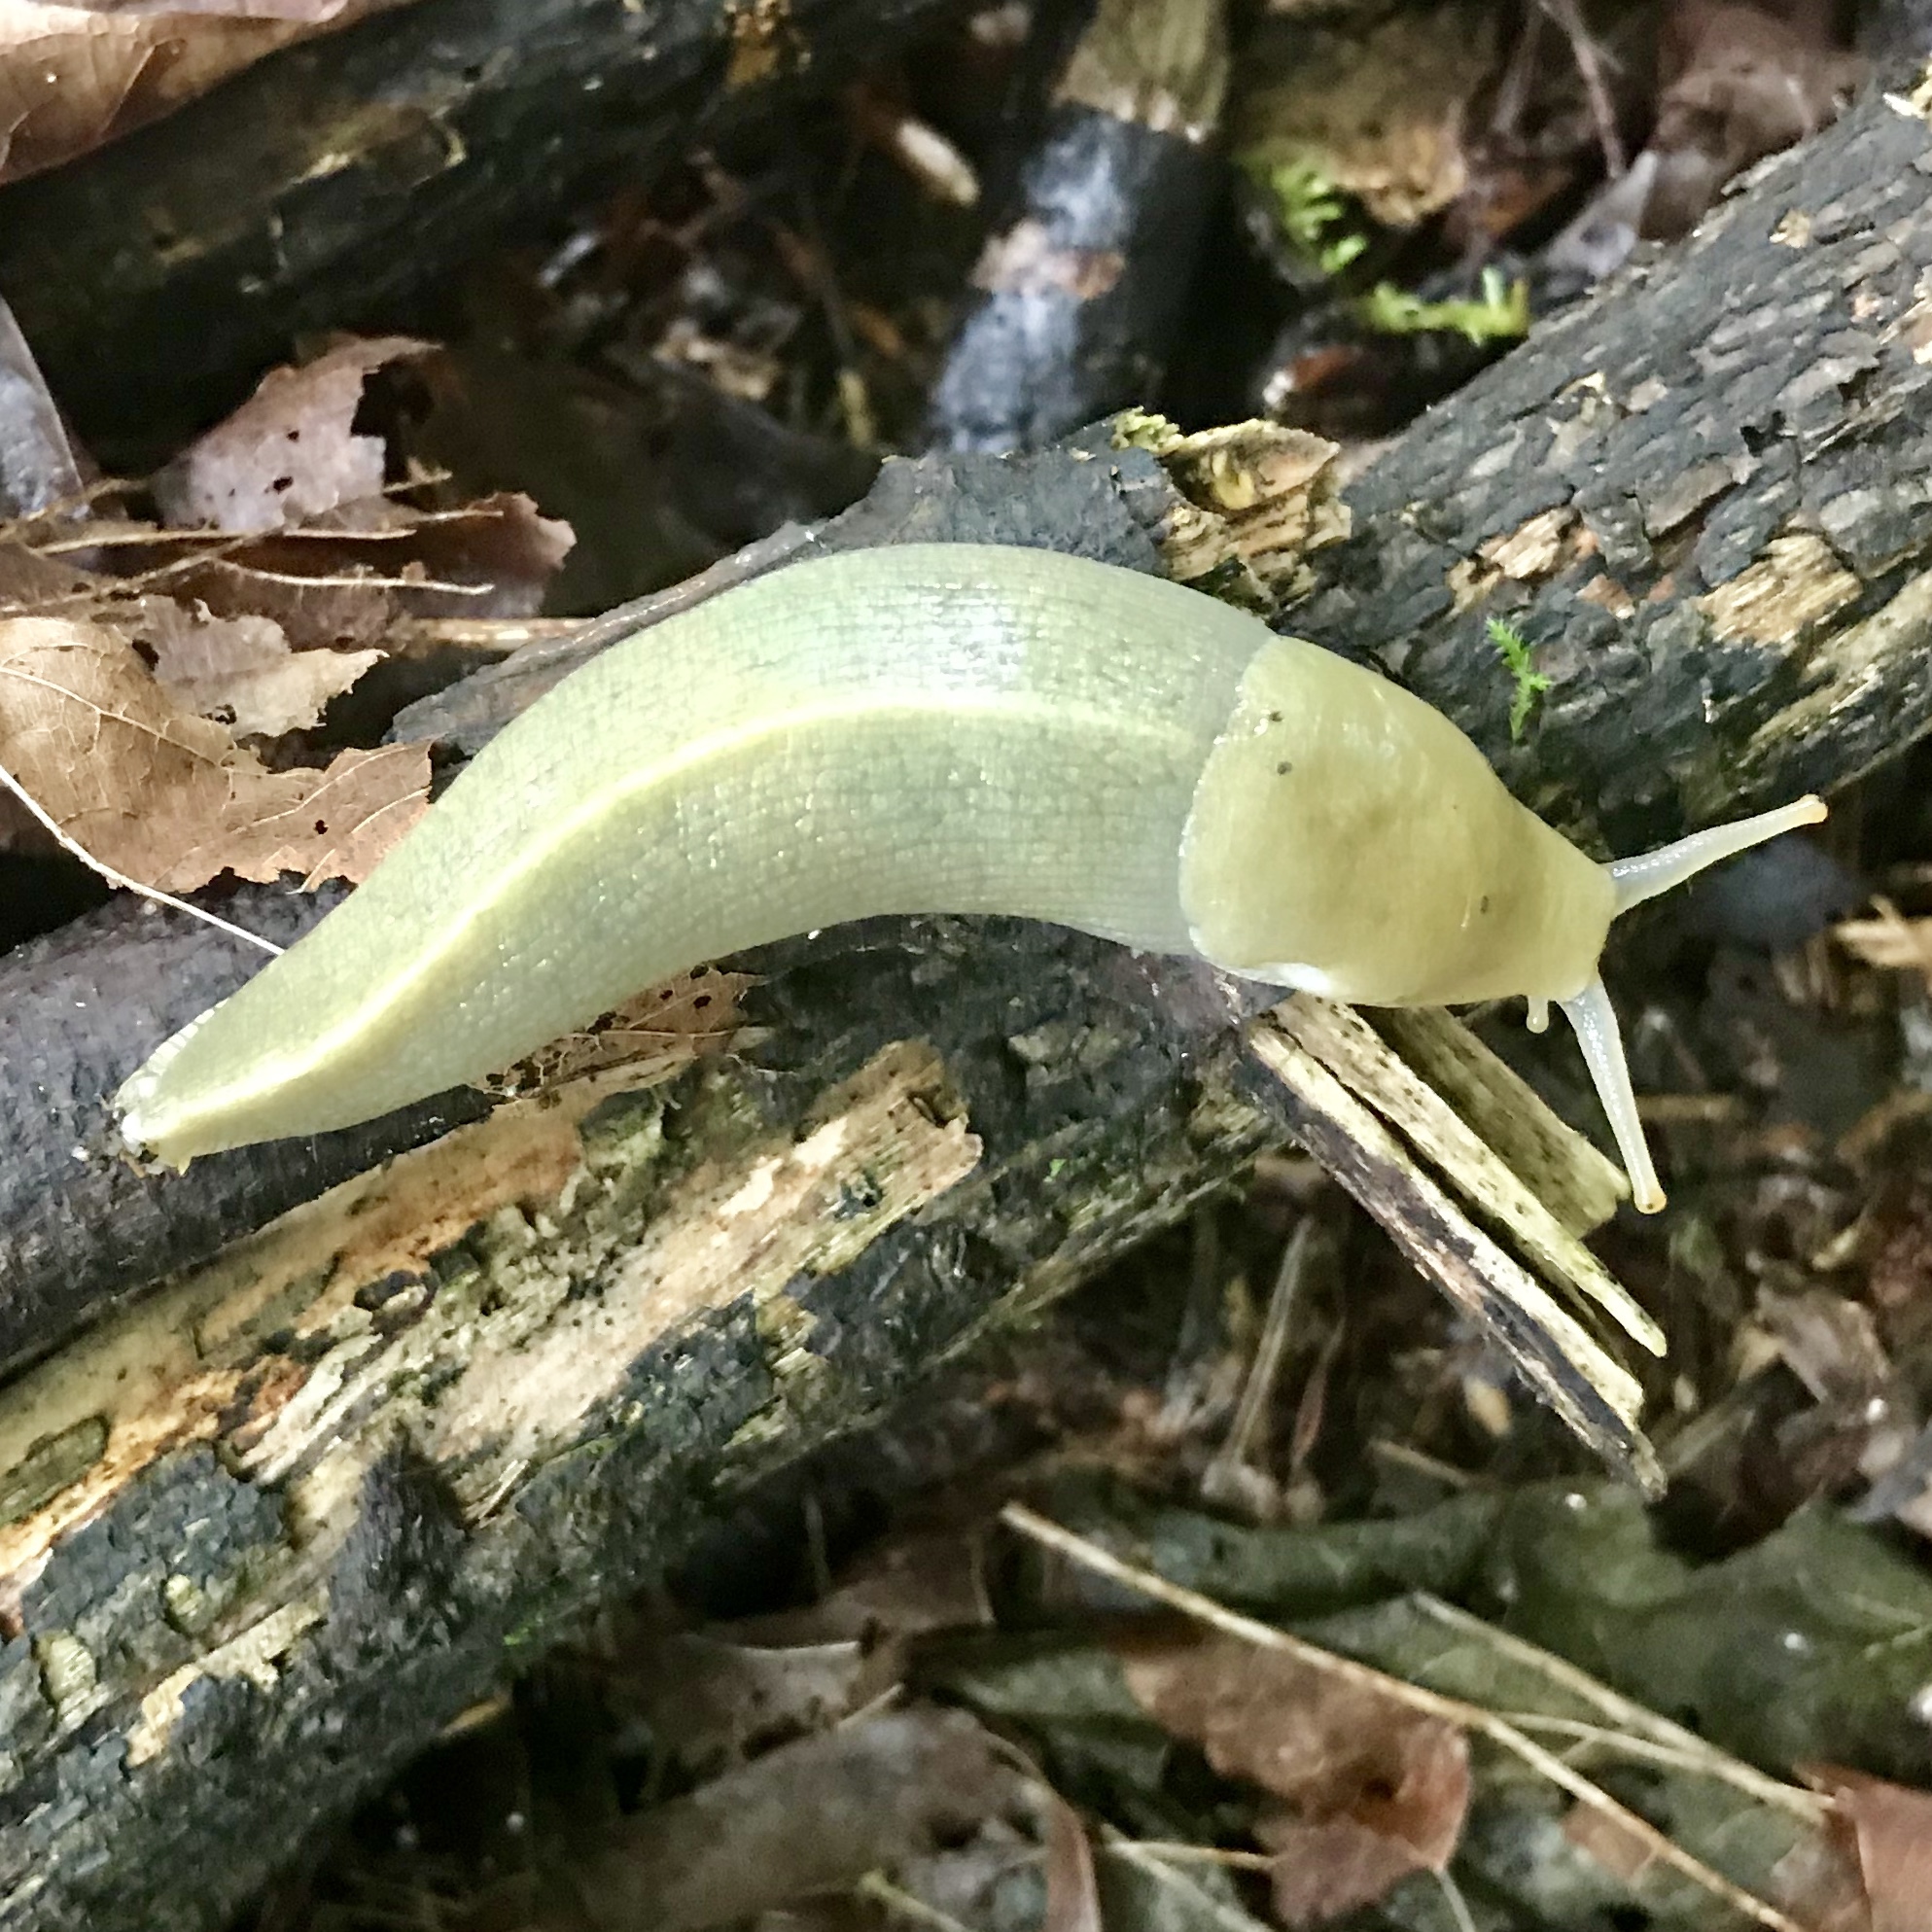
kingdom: Animalia
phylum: Mollusca
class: Gastropoda
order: Stylommatophora
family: Ariolimacidae
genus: Ariolimax
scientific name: Ariolimax columbianus
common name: Pacific banana slug
